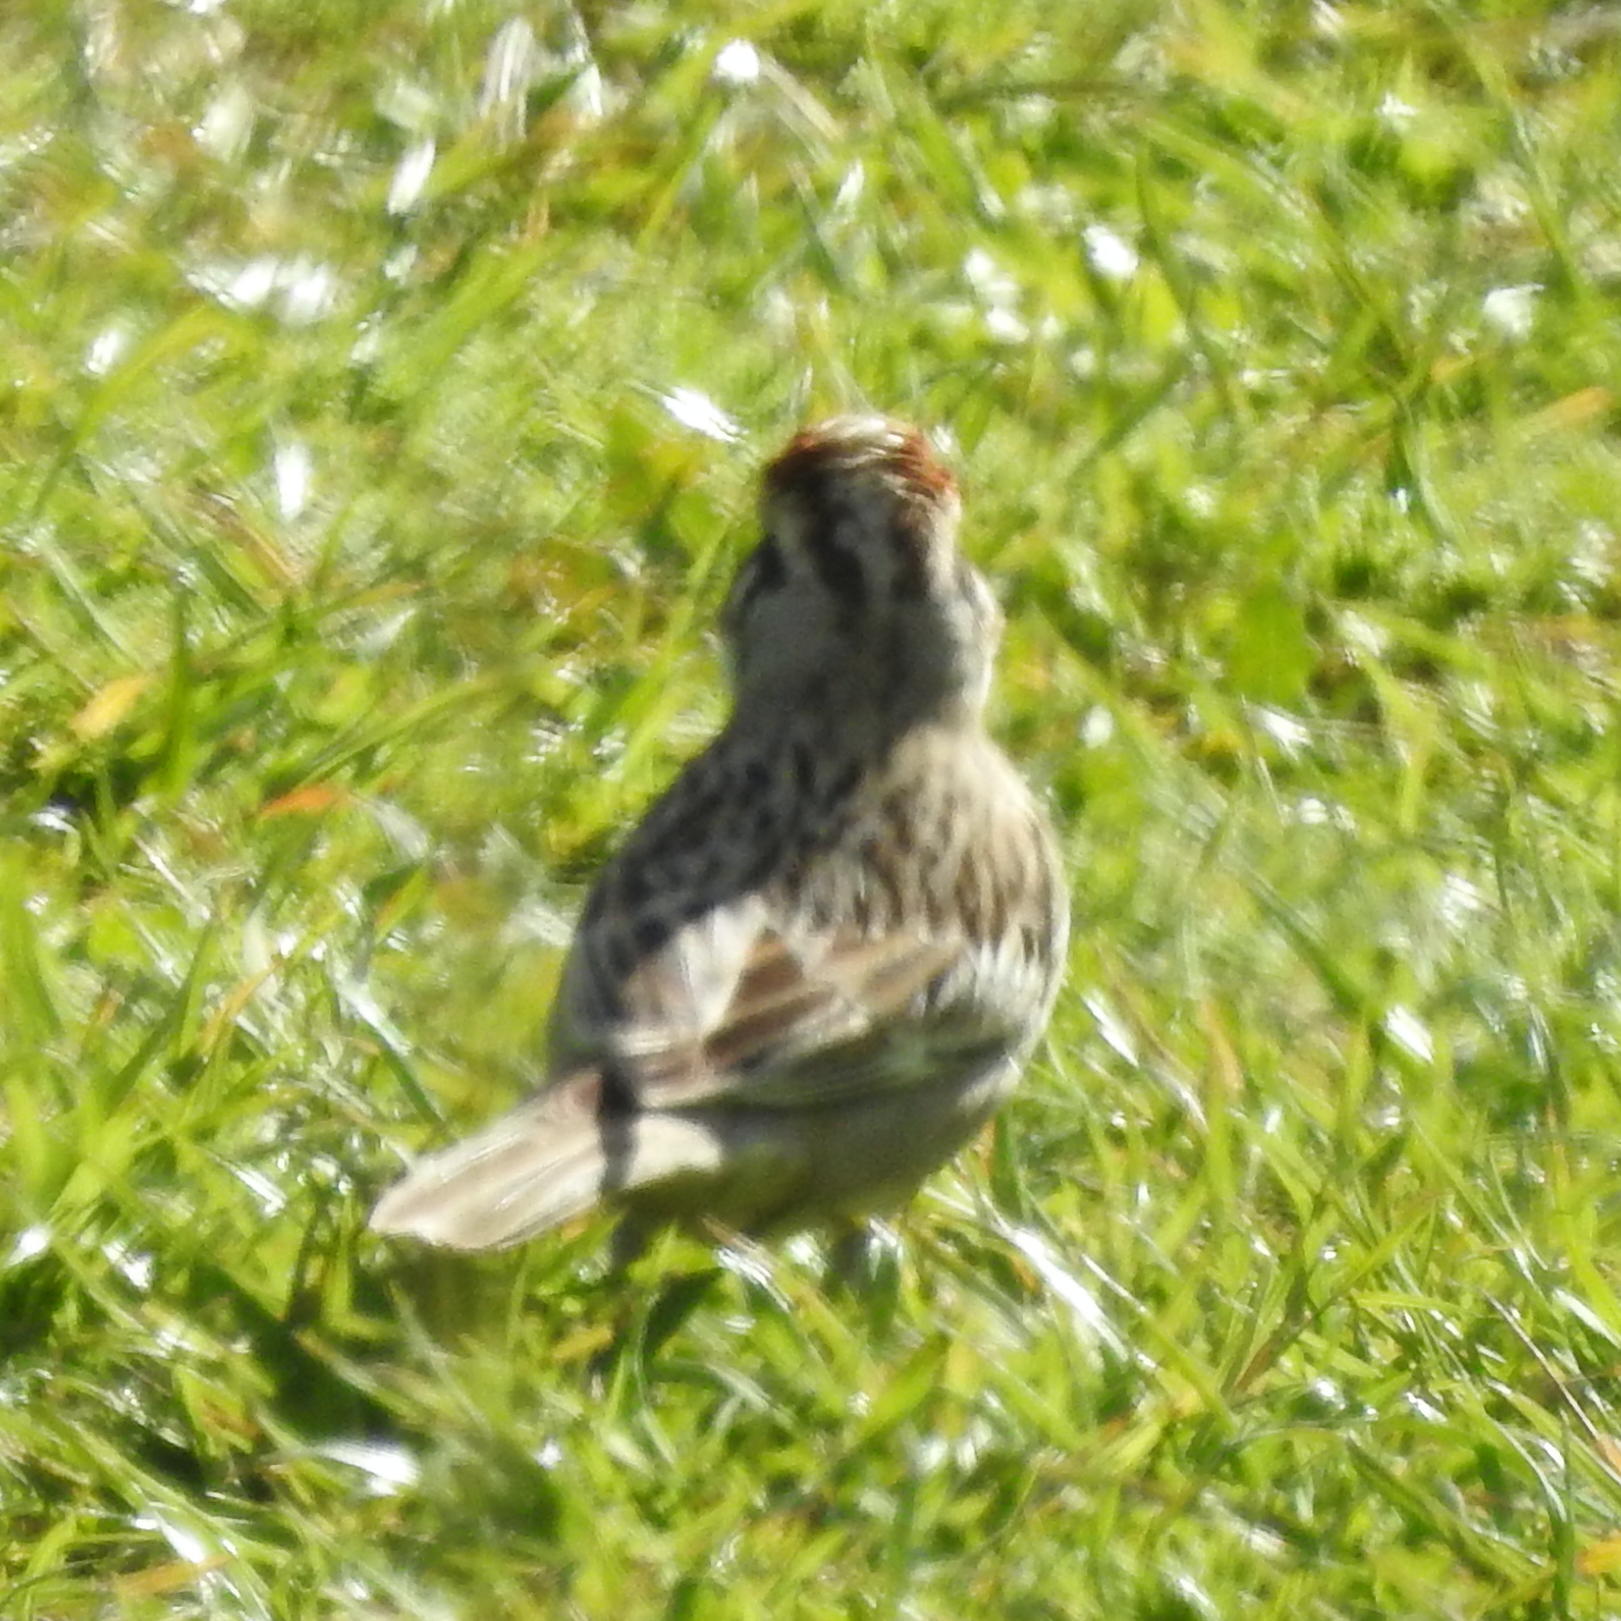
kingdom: Animalia
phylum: Chordata
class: Aves
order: Passeriformes
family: Passerellidae
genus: Chondestes
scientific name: Chondestes grammacus
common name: Lark sparrow
